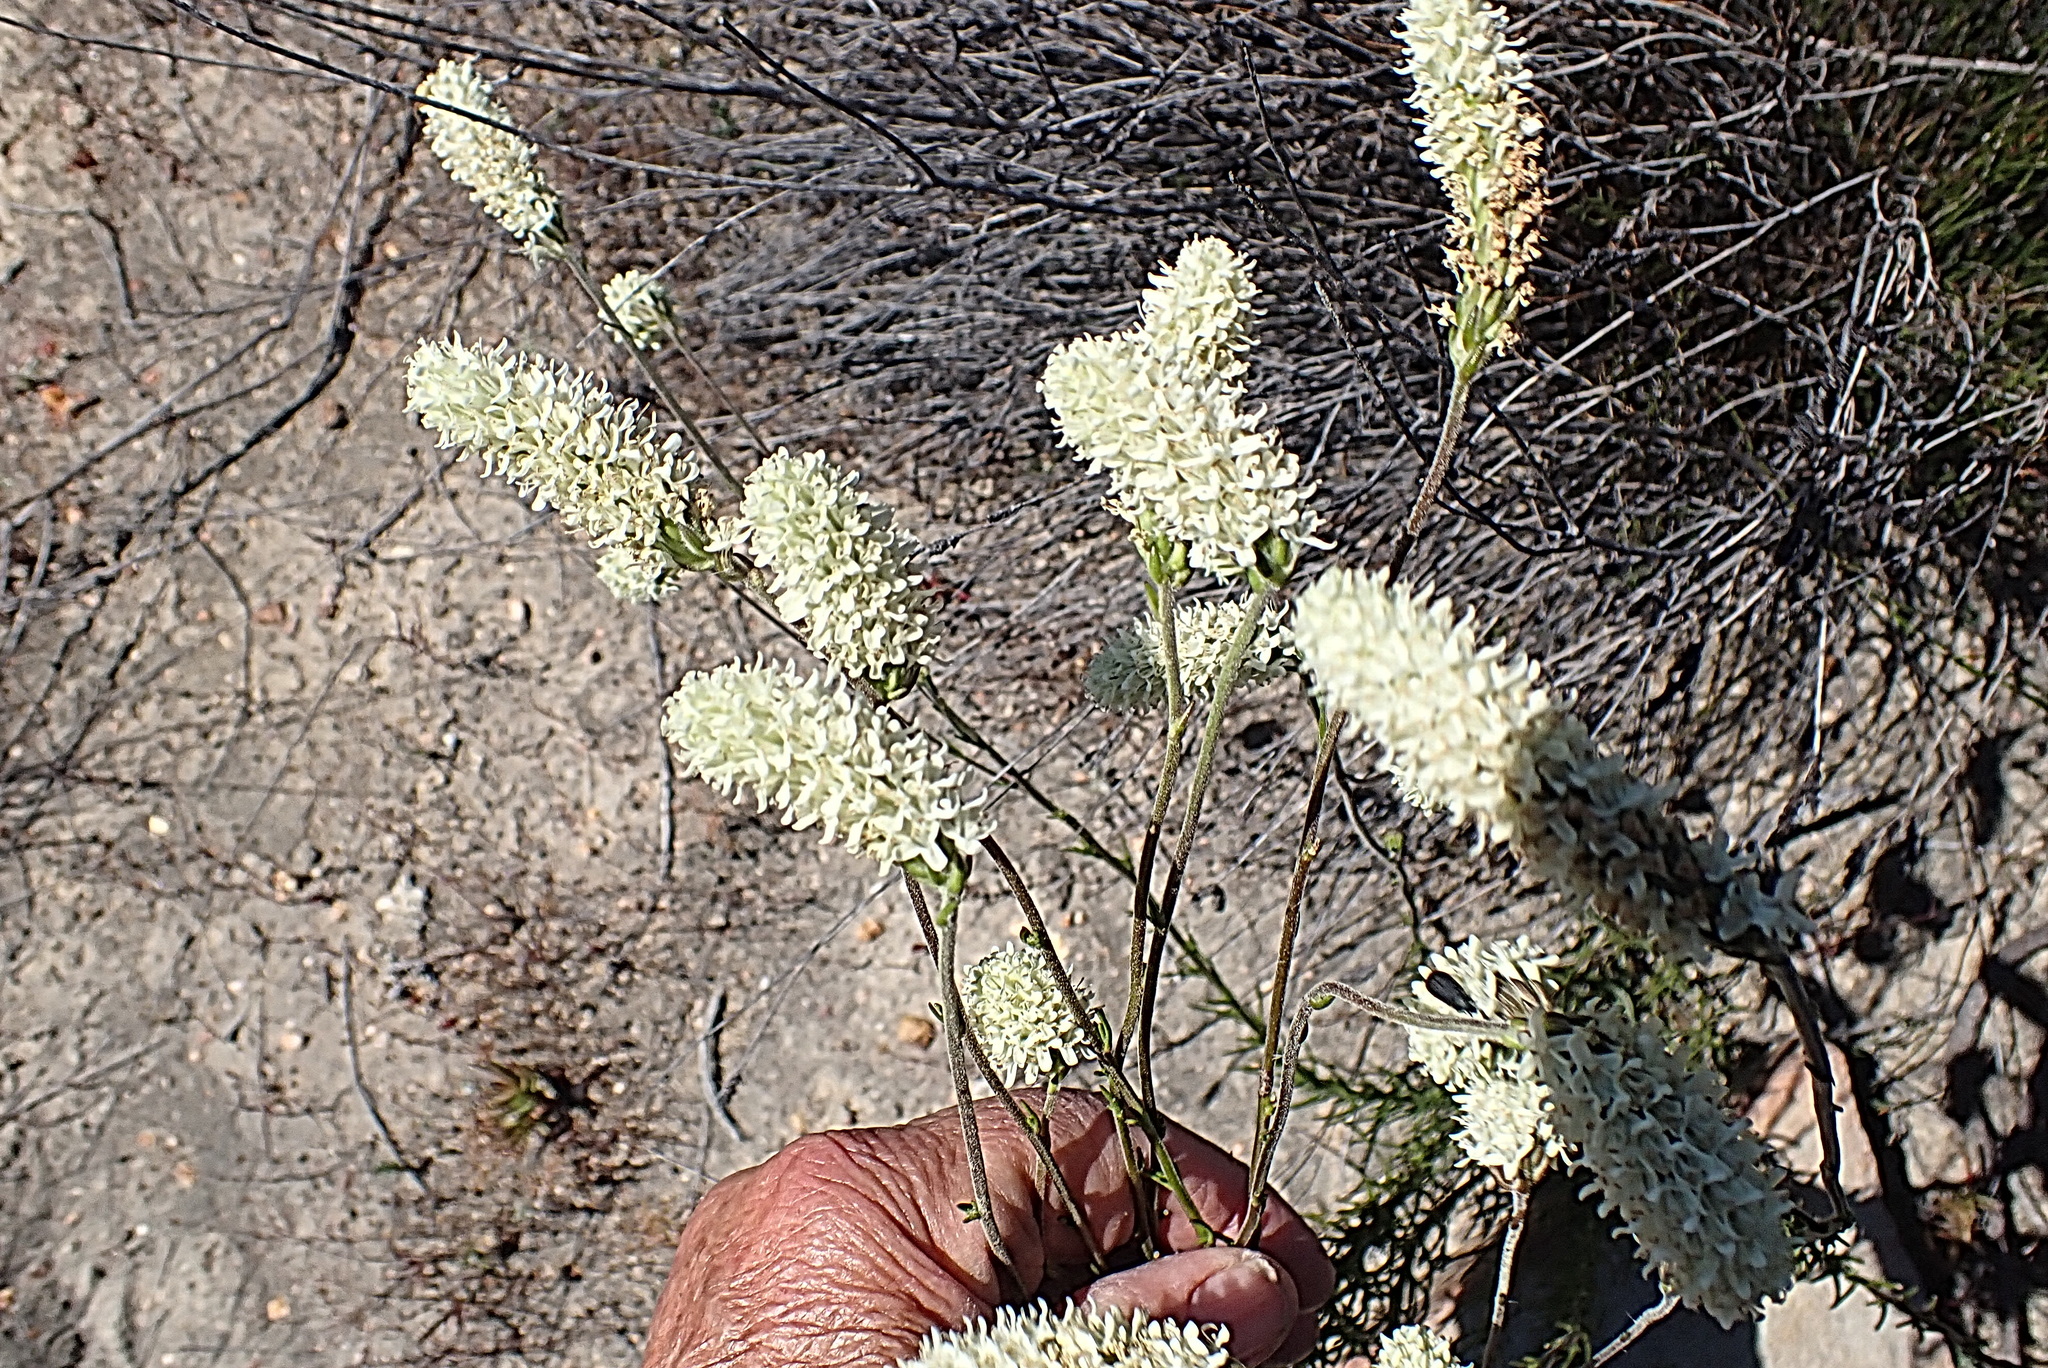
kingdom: Plantae
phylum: Tracheophyta
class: Magnoliopsida
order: Lamiales
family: Scrophulariaceae
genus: Phyllopodium
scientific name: Phyllopodium elegans
